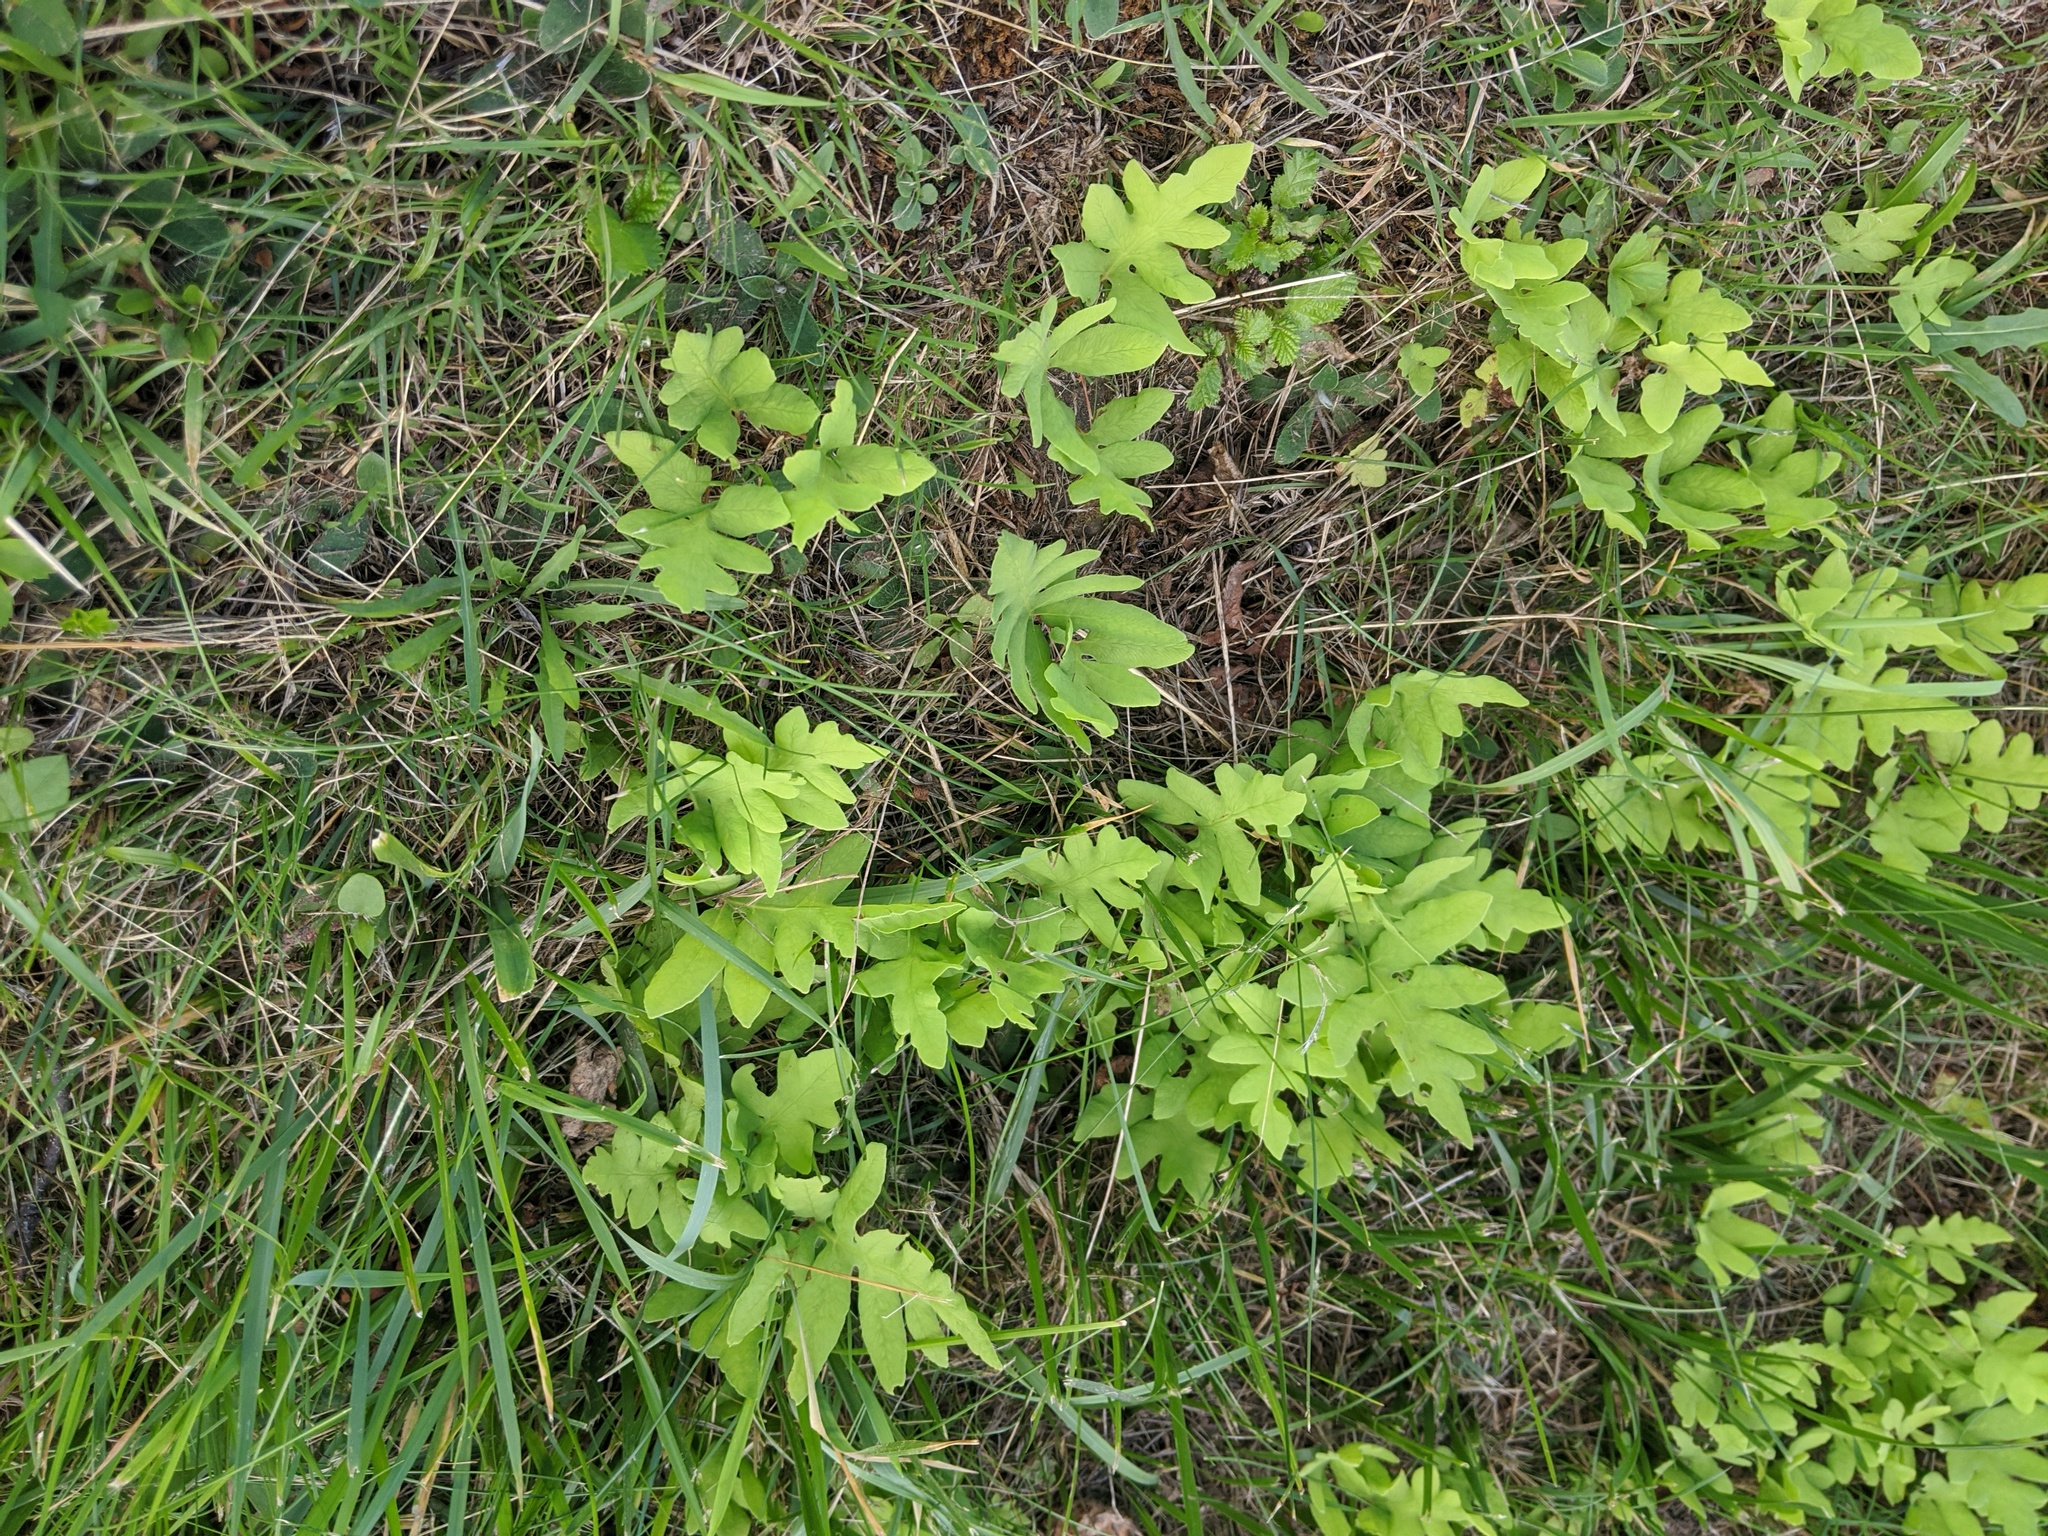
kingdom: Plantae
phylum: Tracheophyta
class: Polypodiopsida
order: Polypodiales
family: Onocleaceae
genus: Onoclea
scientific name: Onoclea sensibilis
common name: Sensitive fern
